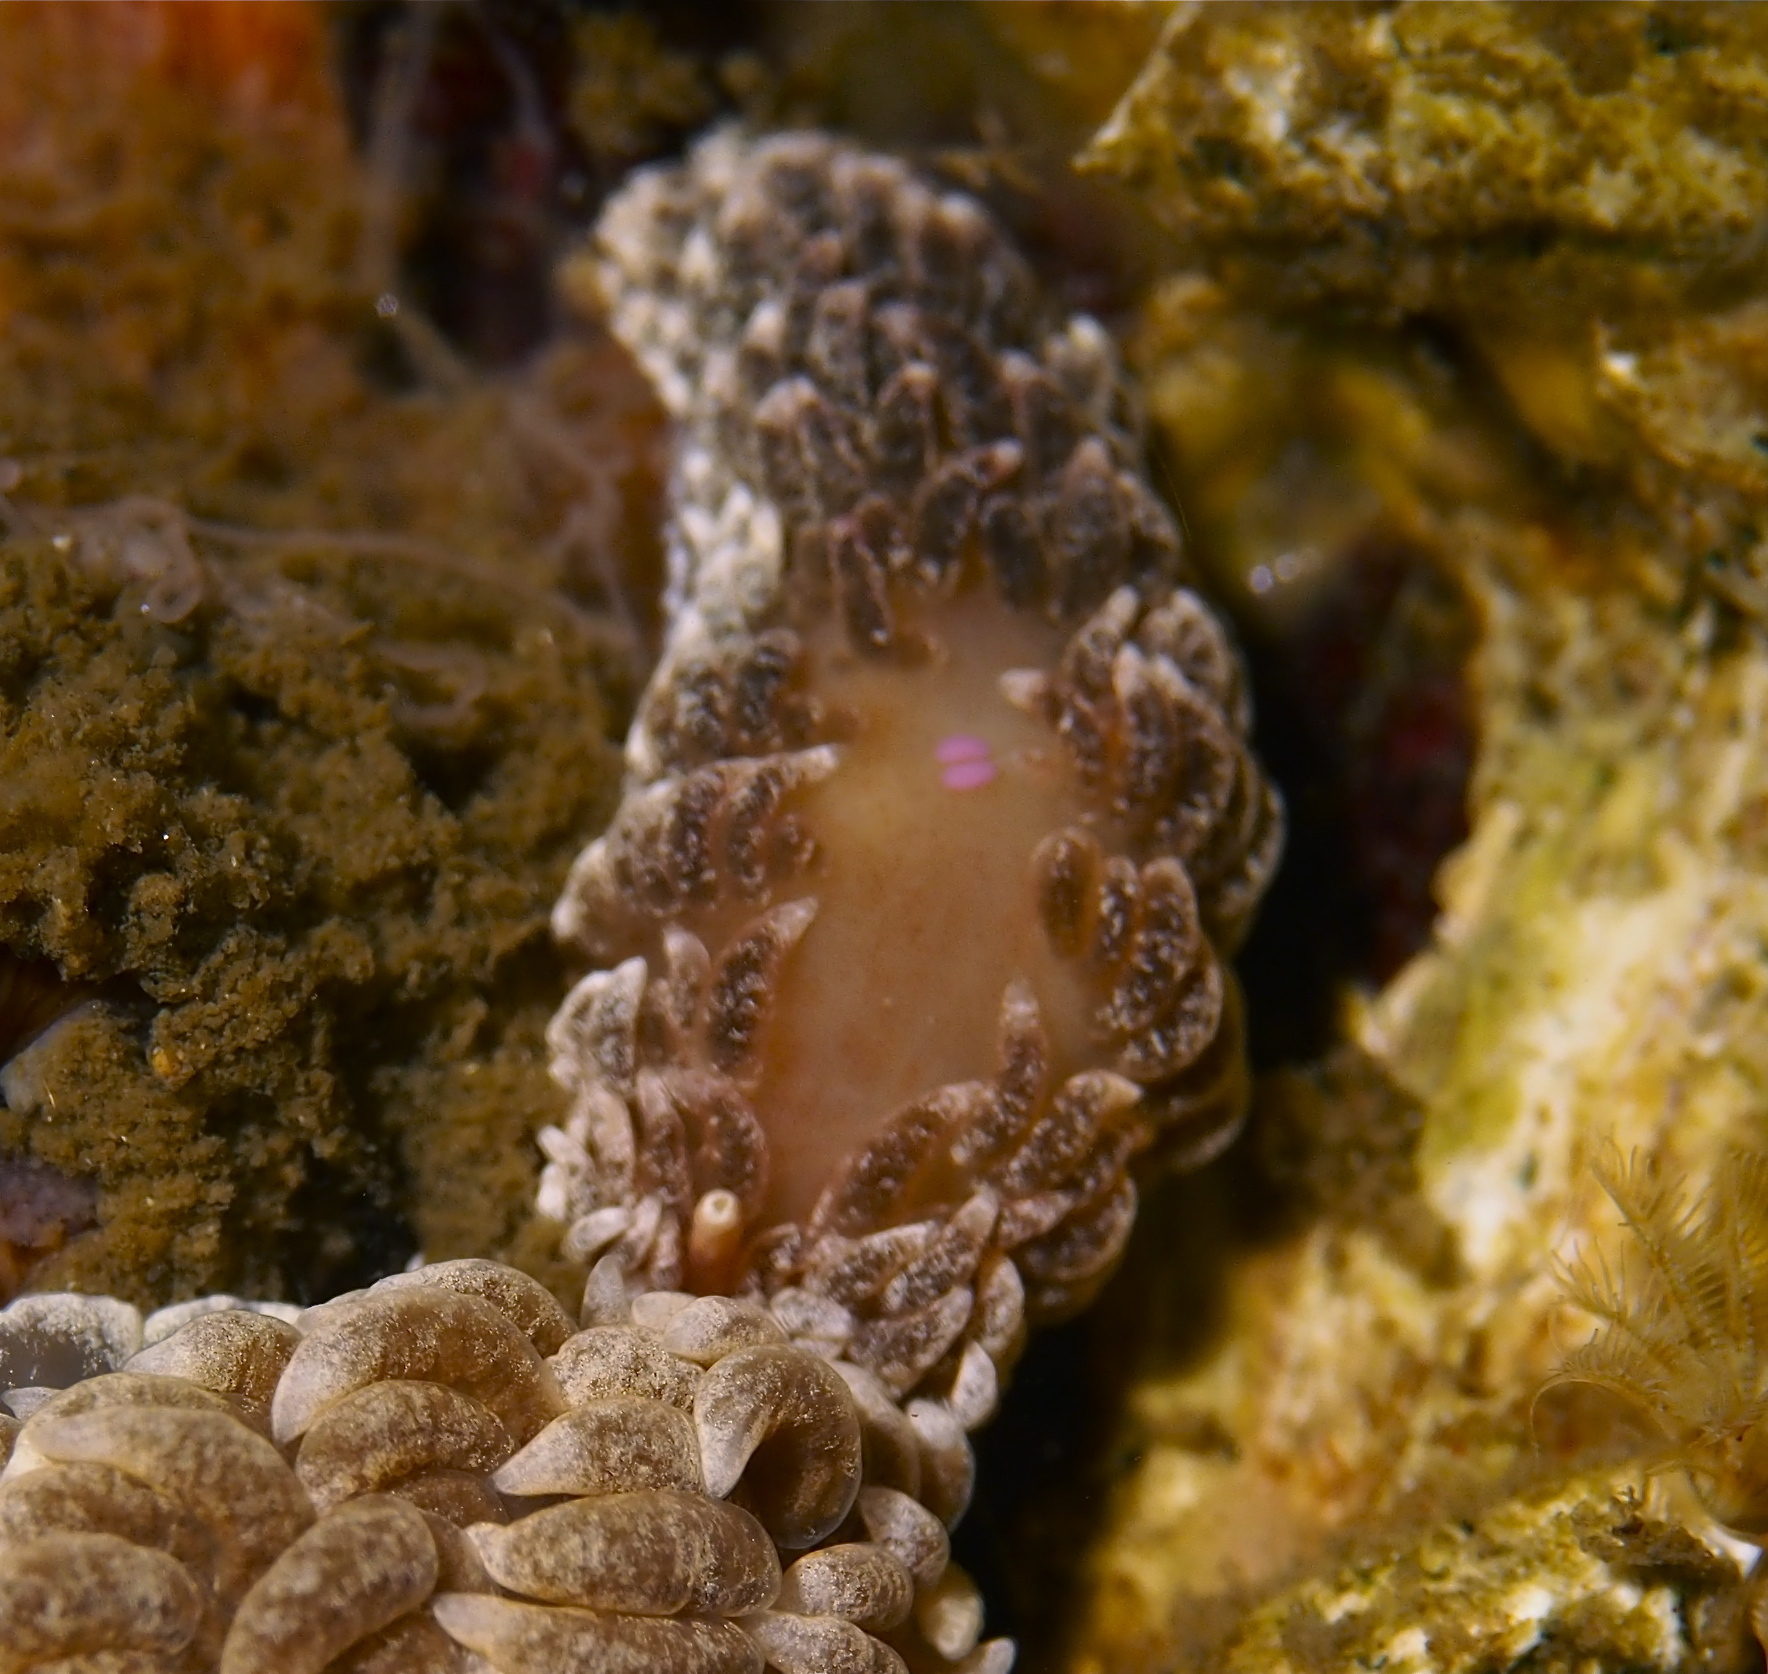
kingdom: Animalia
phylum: Mollusca
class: Gastropoda
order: Nudibranchia
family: Aeolidiidae
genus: Aeolidiella
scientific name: Aeolidiella glauca
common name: Orange-brown aeolid
